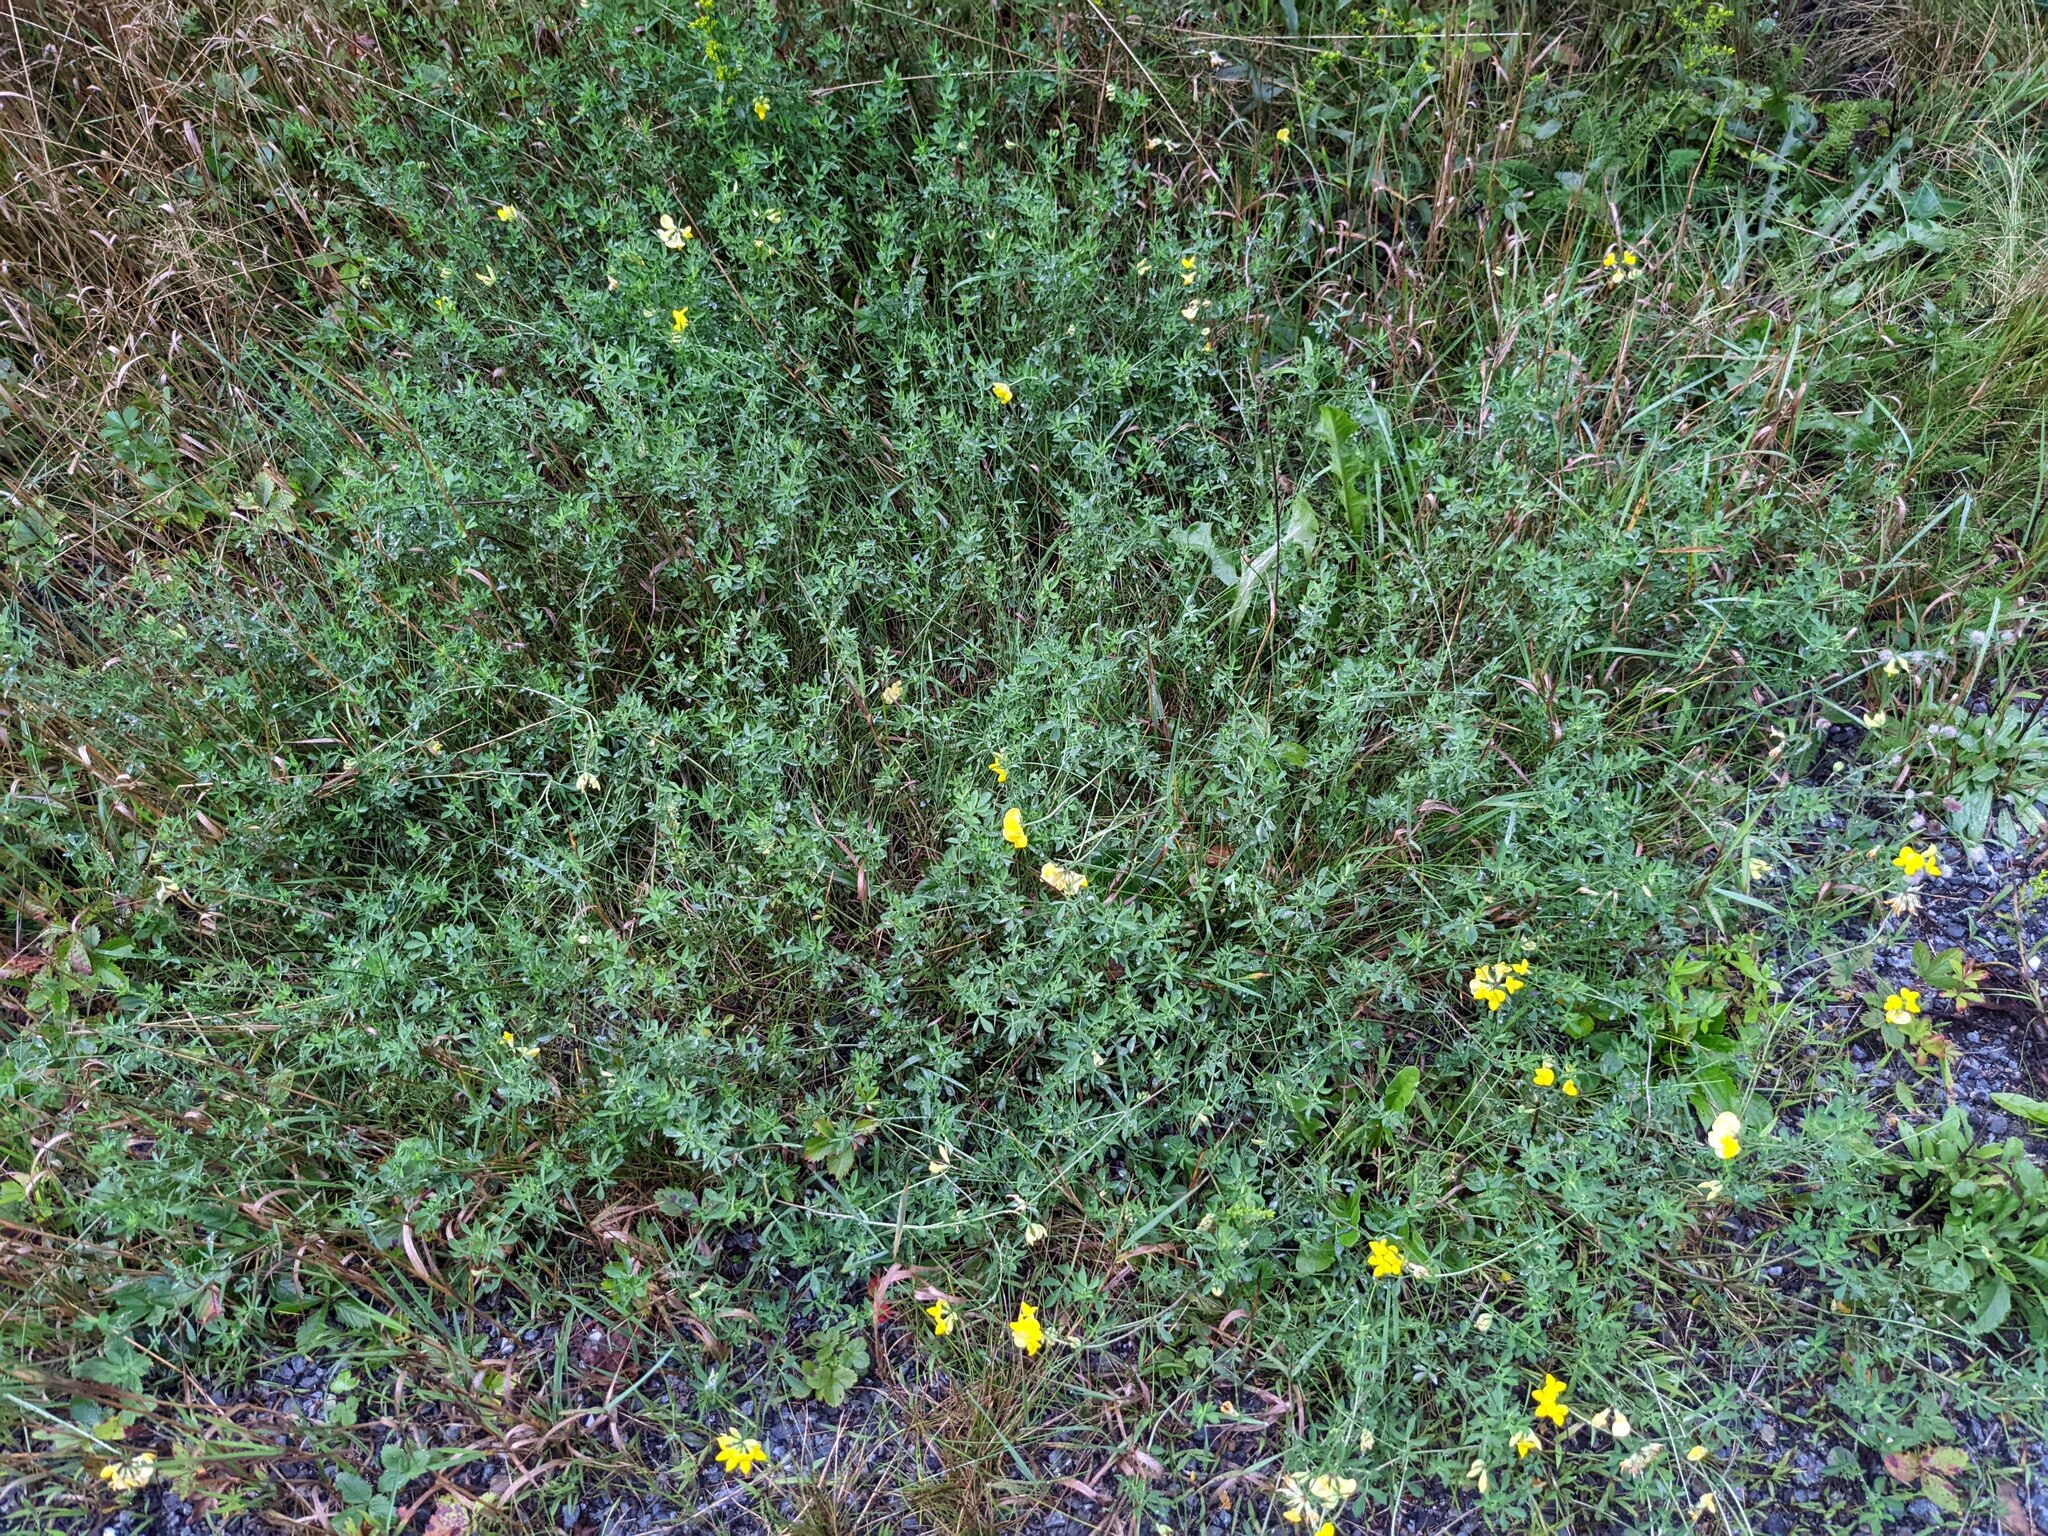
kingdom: Plantae
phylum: Tracheophyta
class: Magnoliopsida
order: Fabales
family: Fabaceae
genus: Lotus
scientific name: Lotus corniculatus
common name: Common bird's-foot-trefoil
